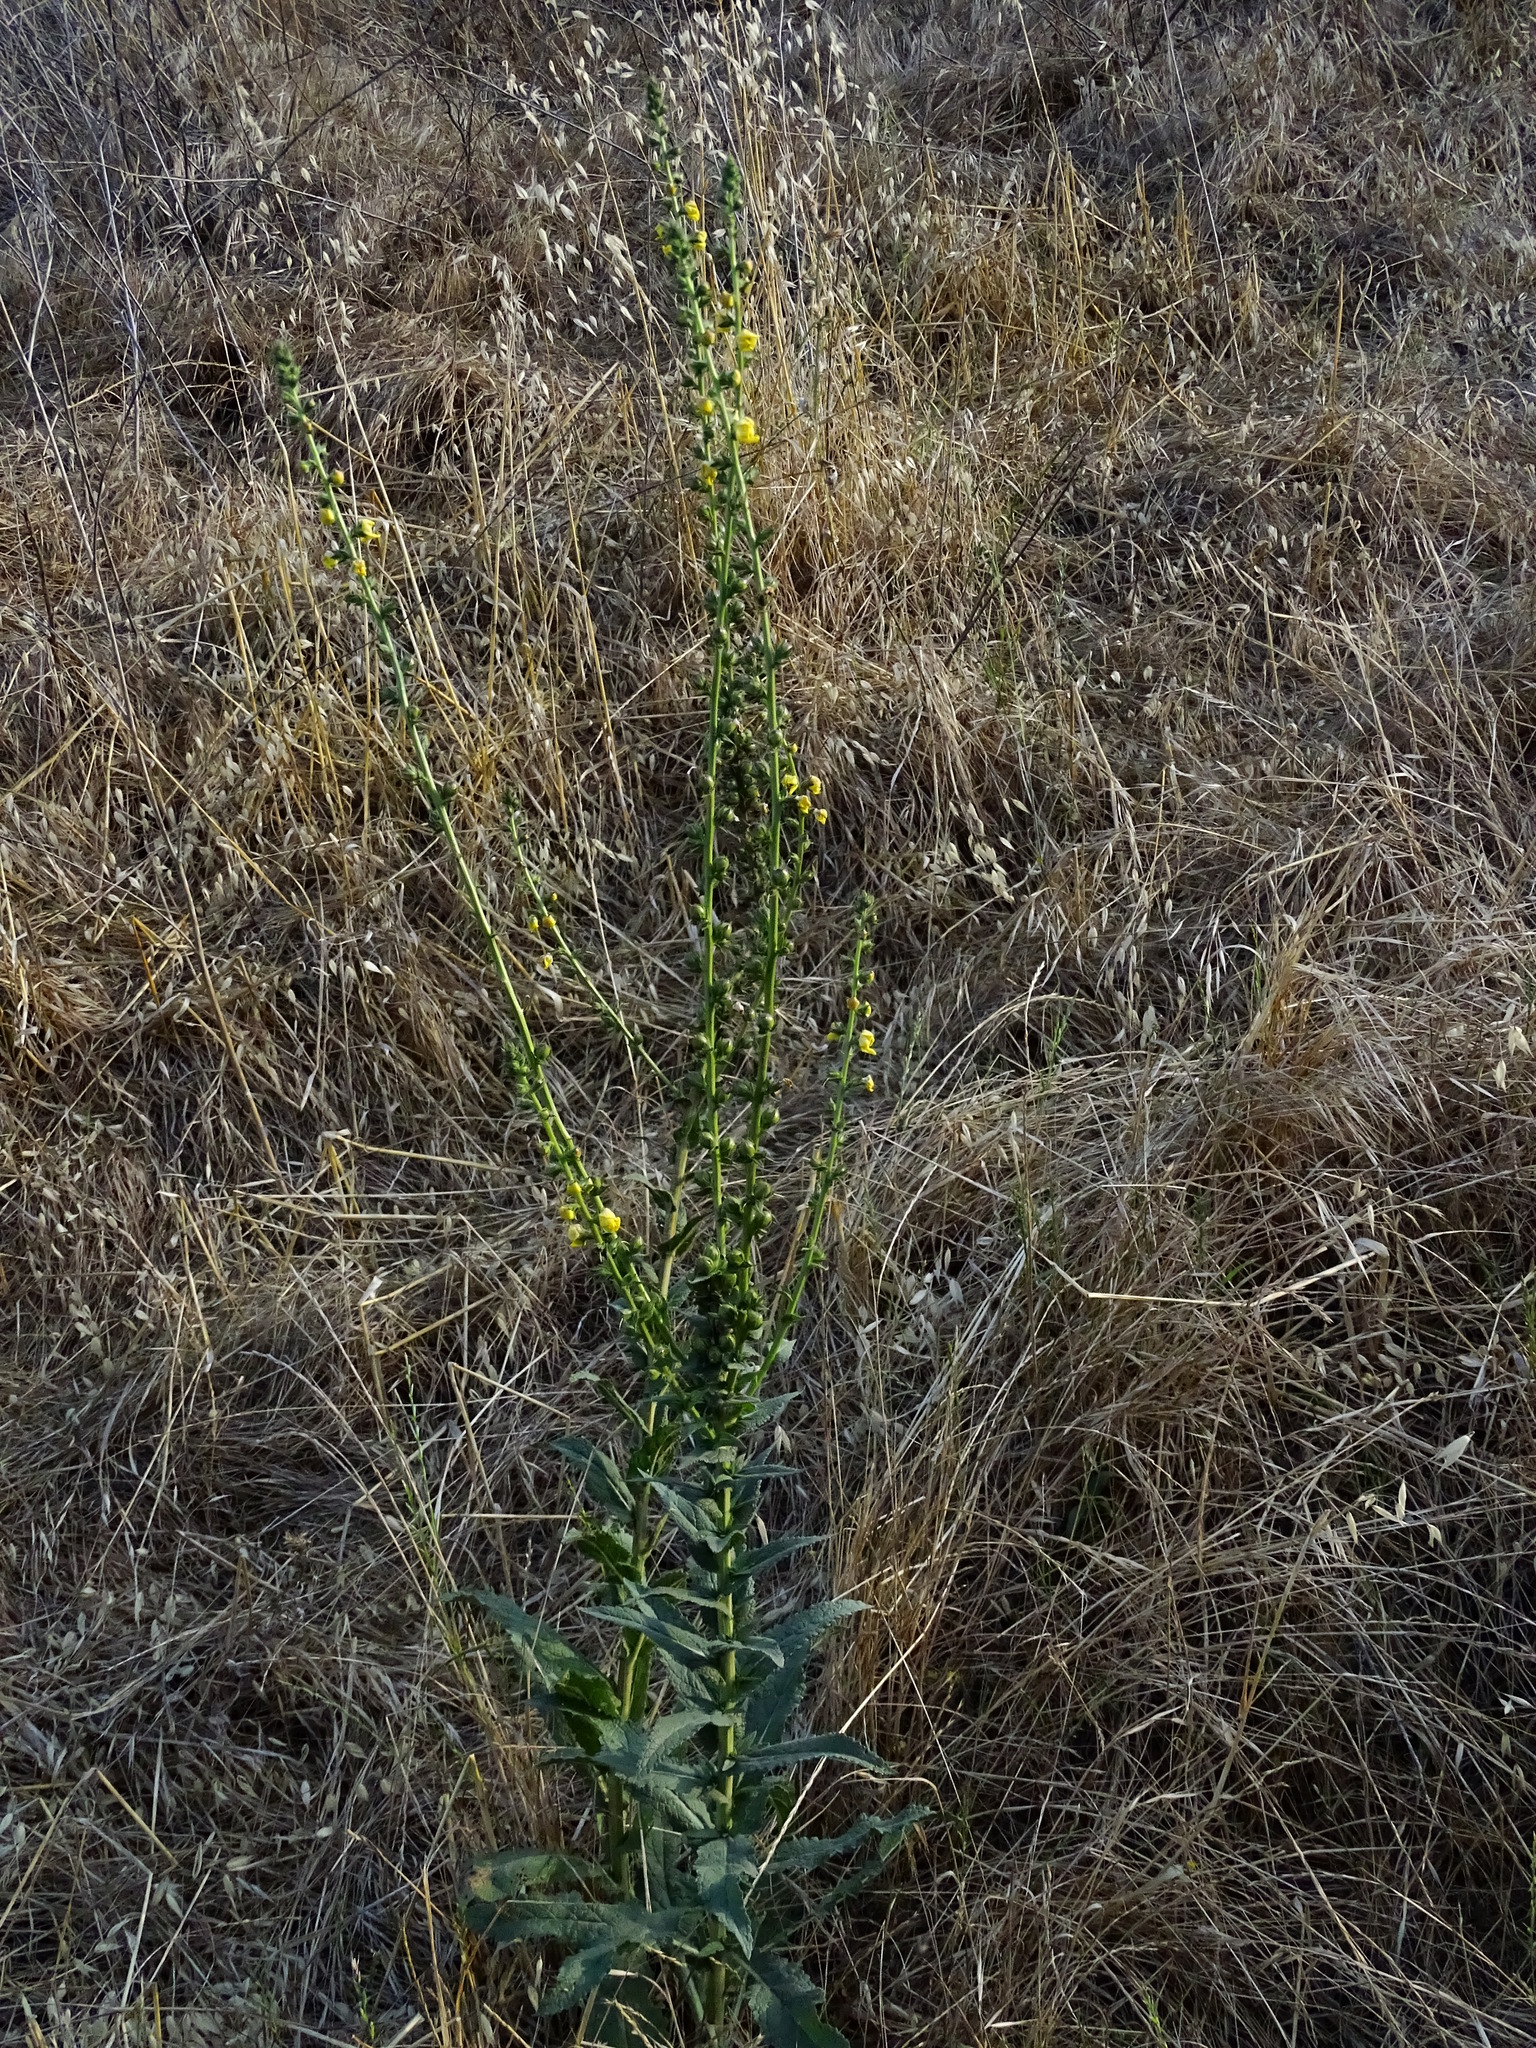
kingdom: Plantae
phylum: Tracheophyta
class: Magnoliopsida
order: Lamiales
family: Scrophulariaceae
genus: Verbascum
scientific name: Verbascum virgatum
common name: Twiggy mullein
